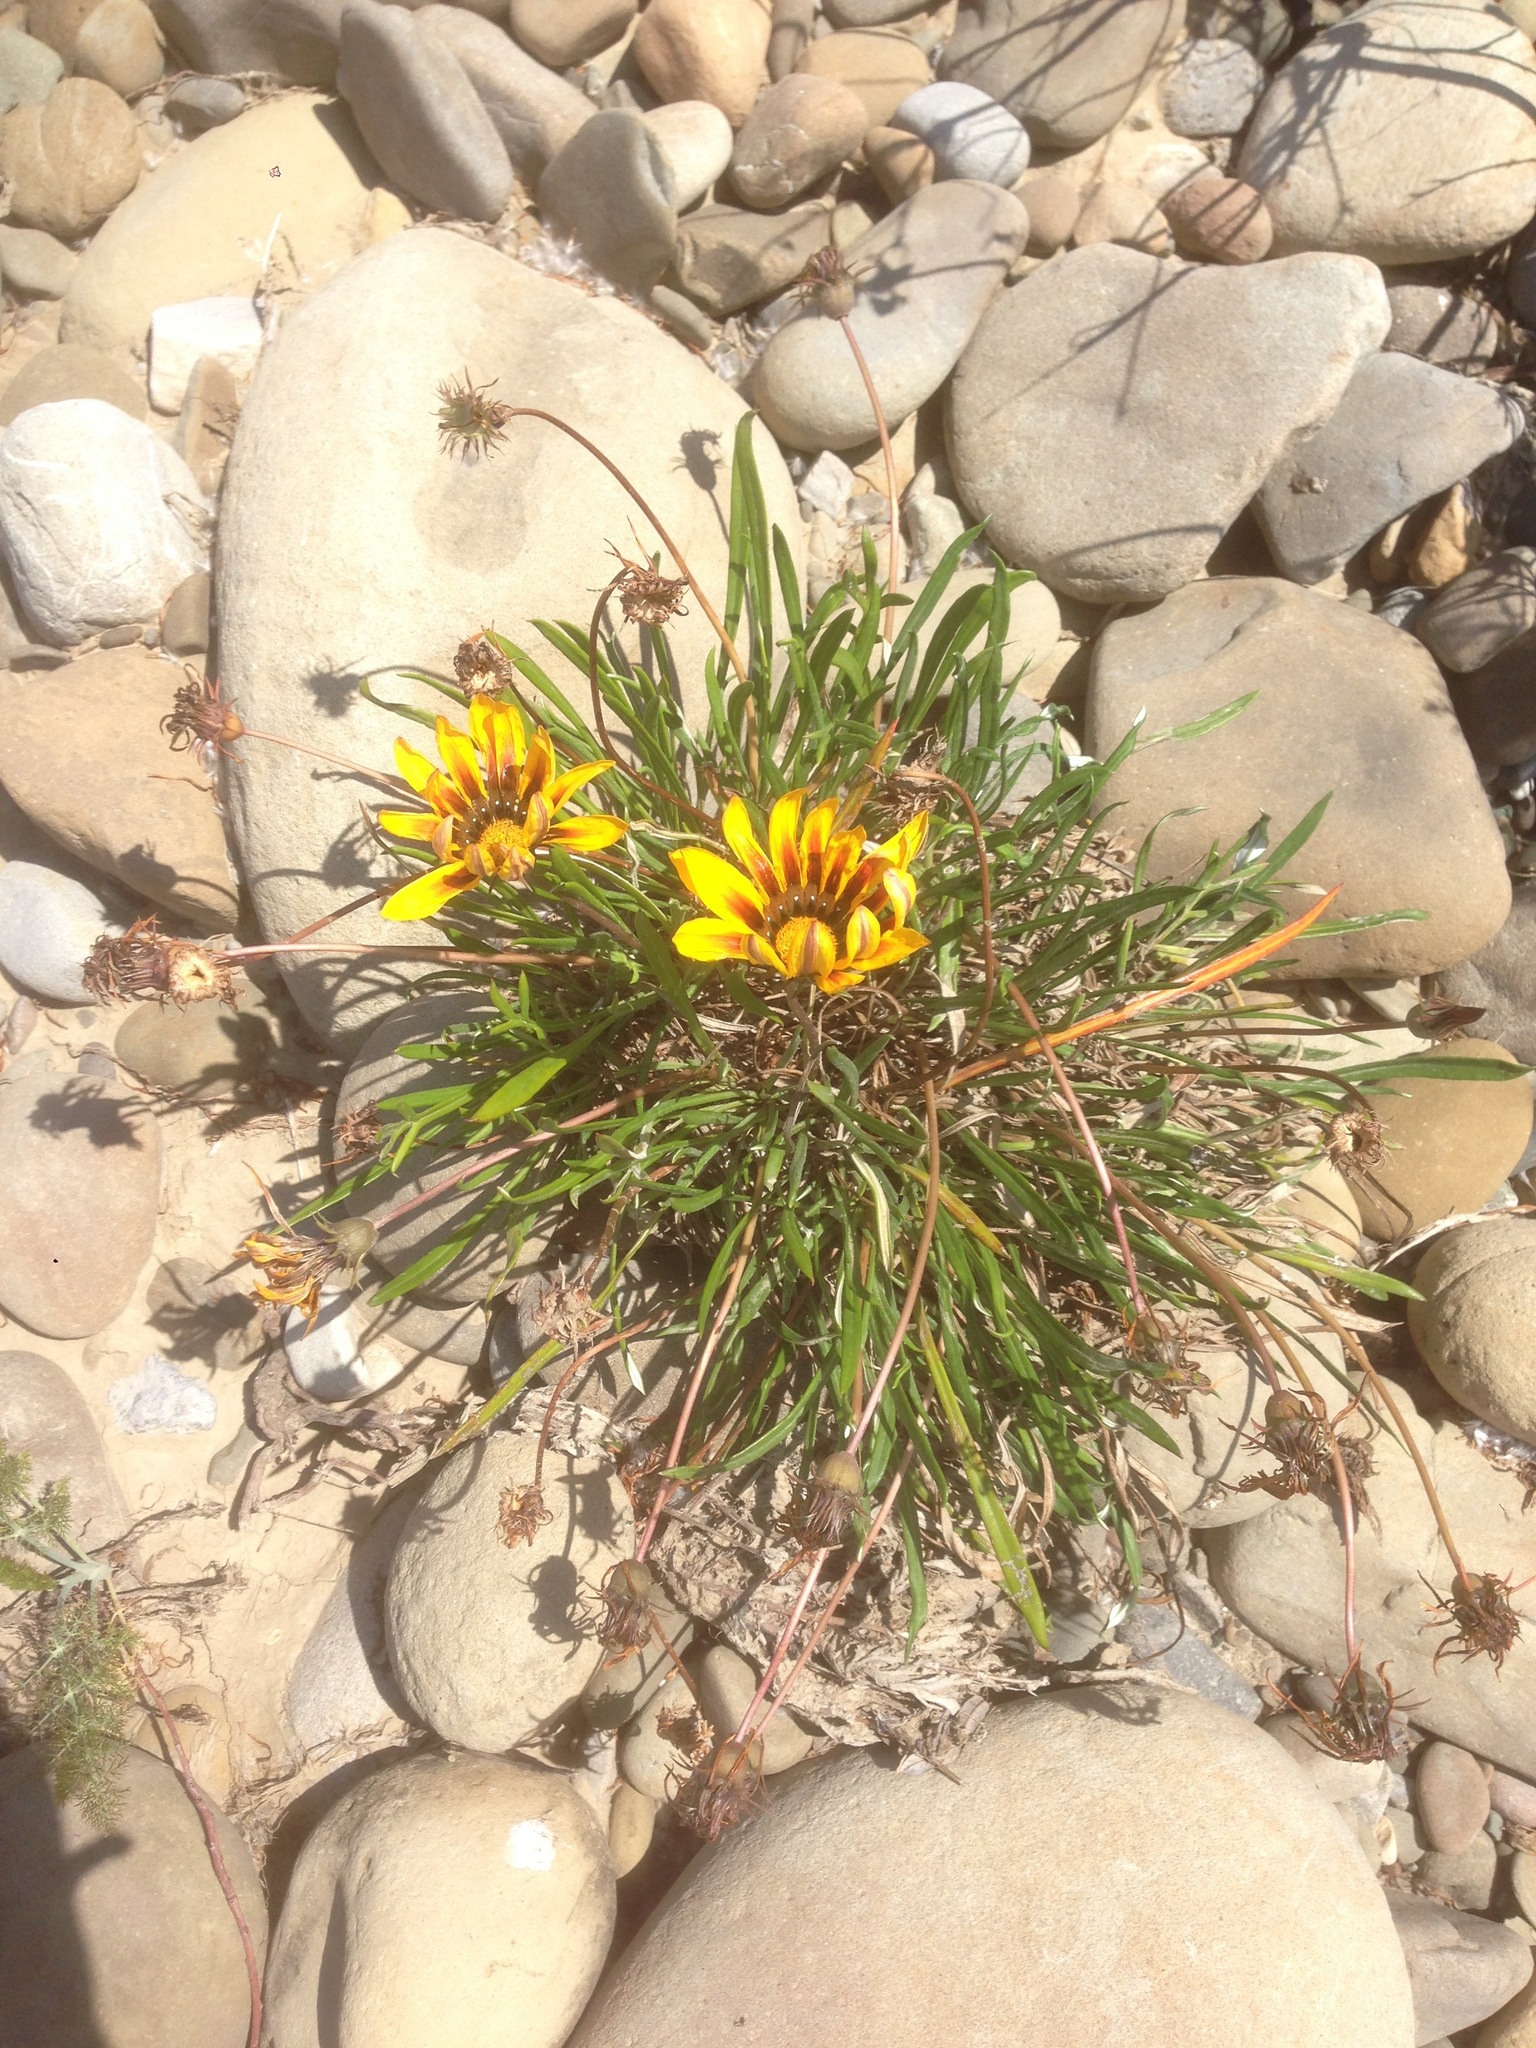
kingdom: Plantae
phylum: Tracheophyta
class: Magnoliopsida
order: Asterales
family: Asteraceae
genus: Gazania
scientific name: Gazania linearis
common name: Treasureflower
